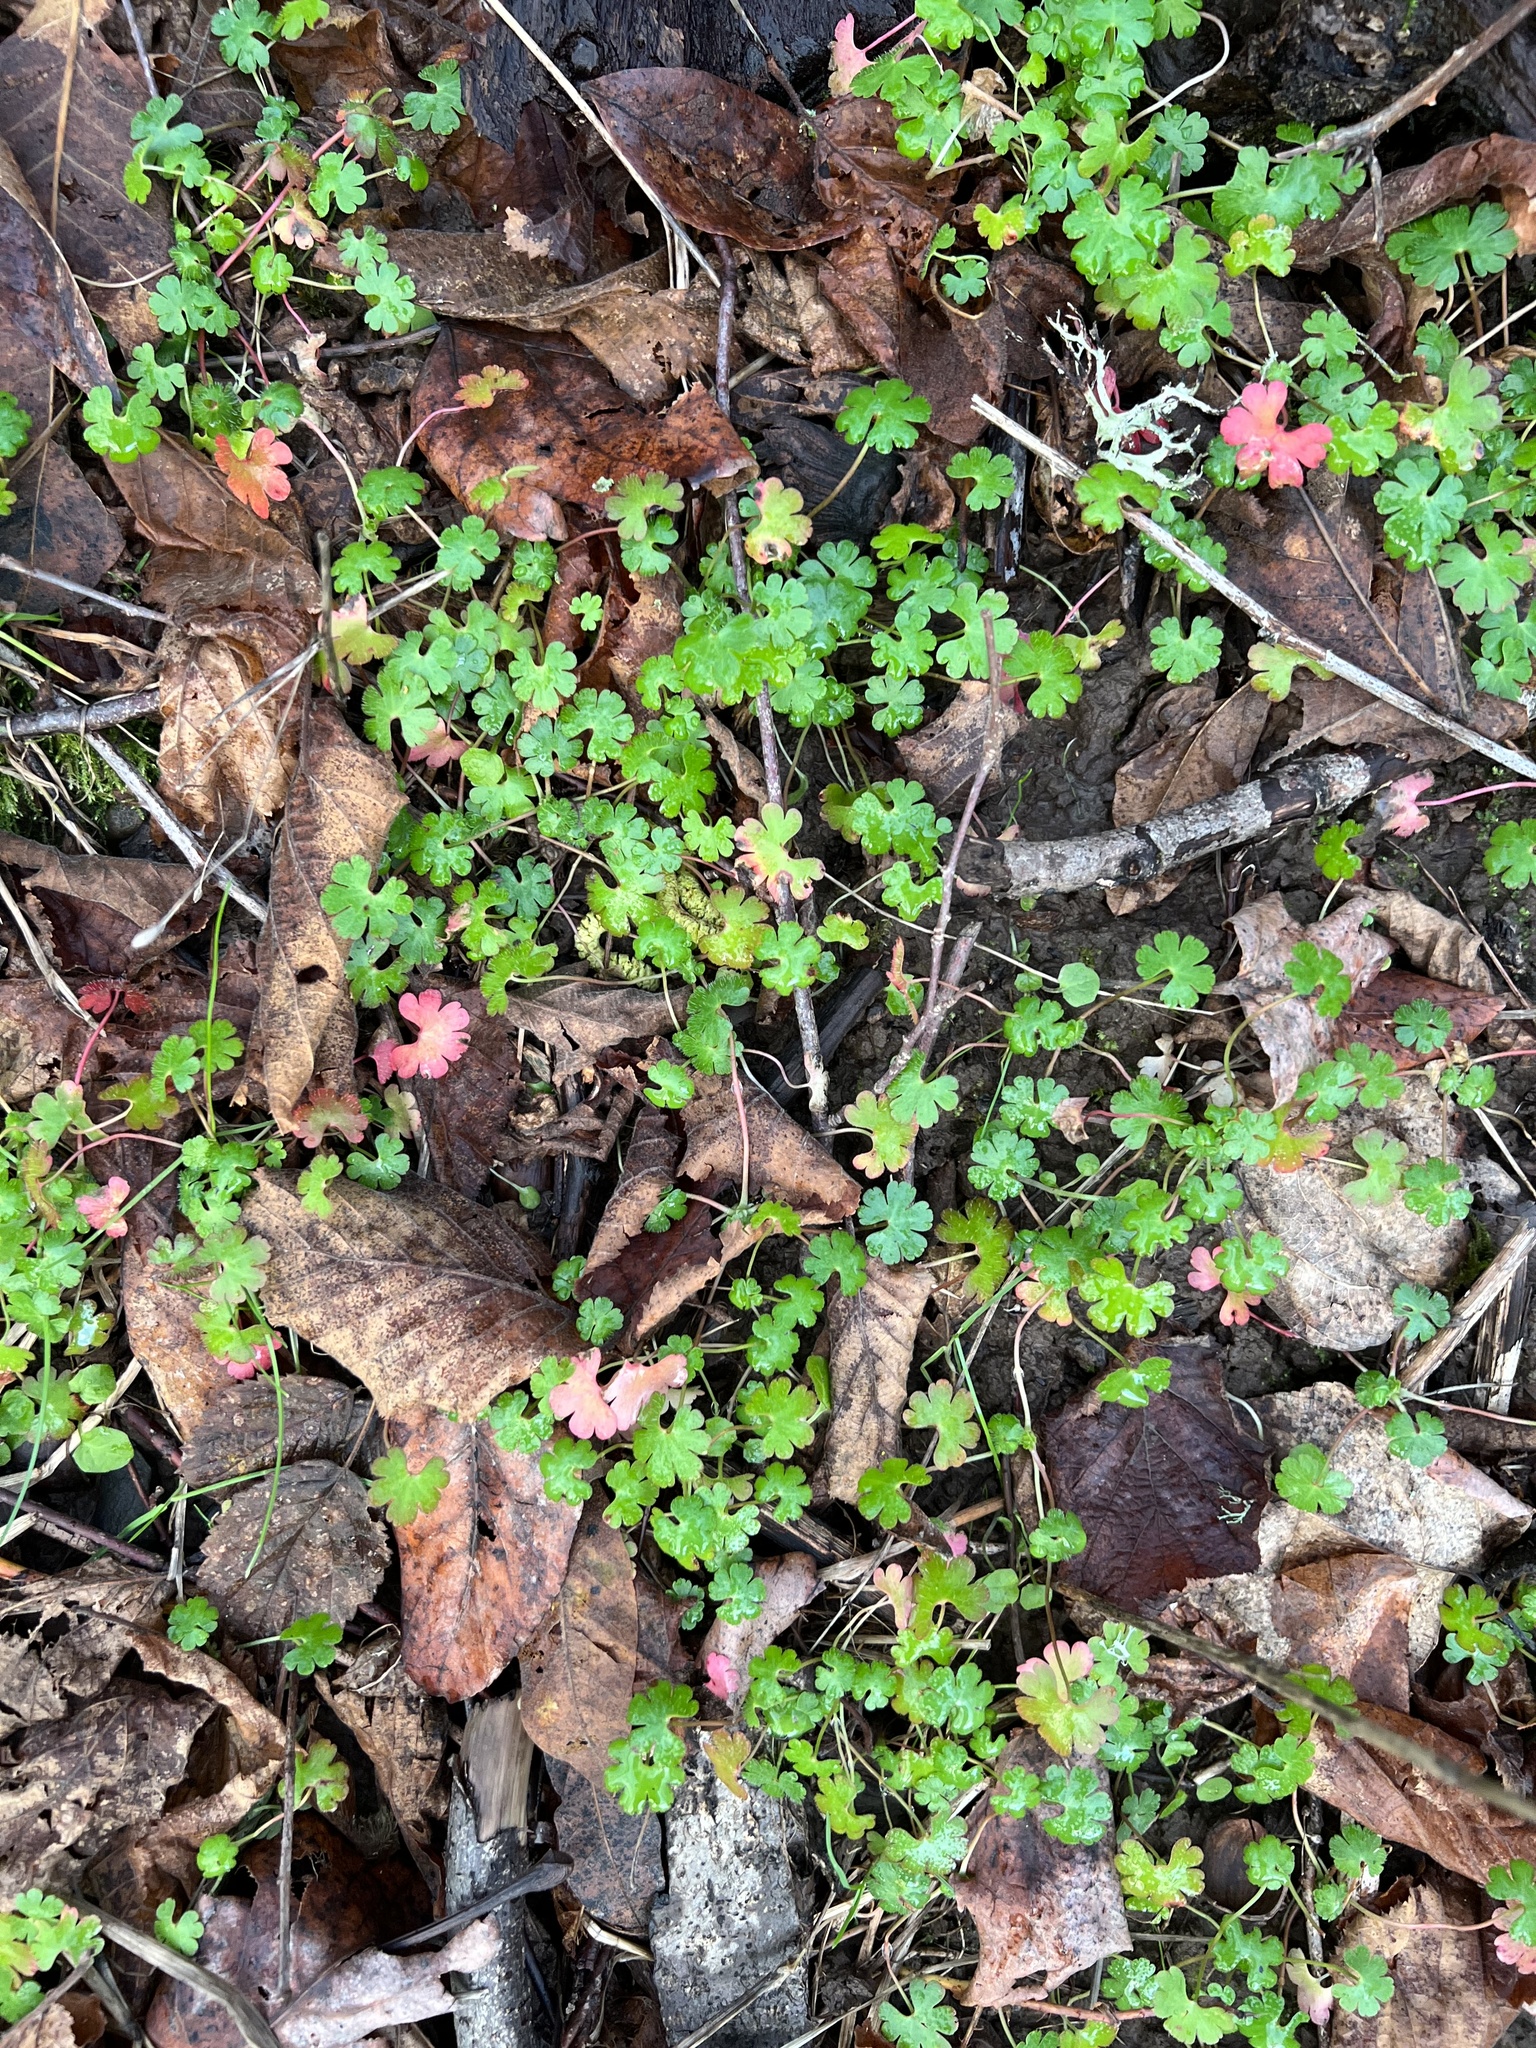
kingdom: Plantae
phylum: Tracheophyta
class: Magnoliopsida
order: Geraniales
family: Geraniaceae
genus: Geranium
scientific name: Geranium lucidum
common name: Shining crane's-bill
